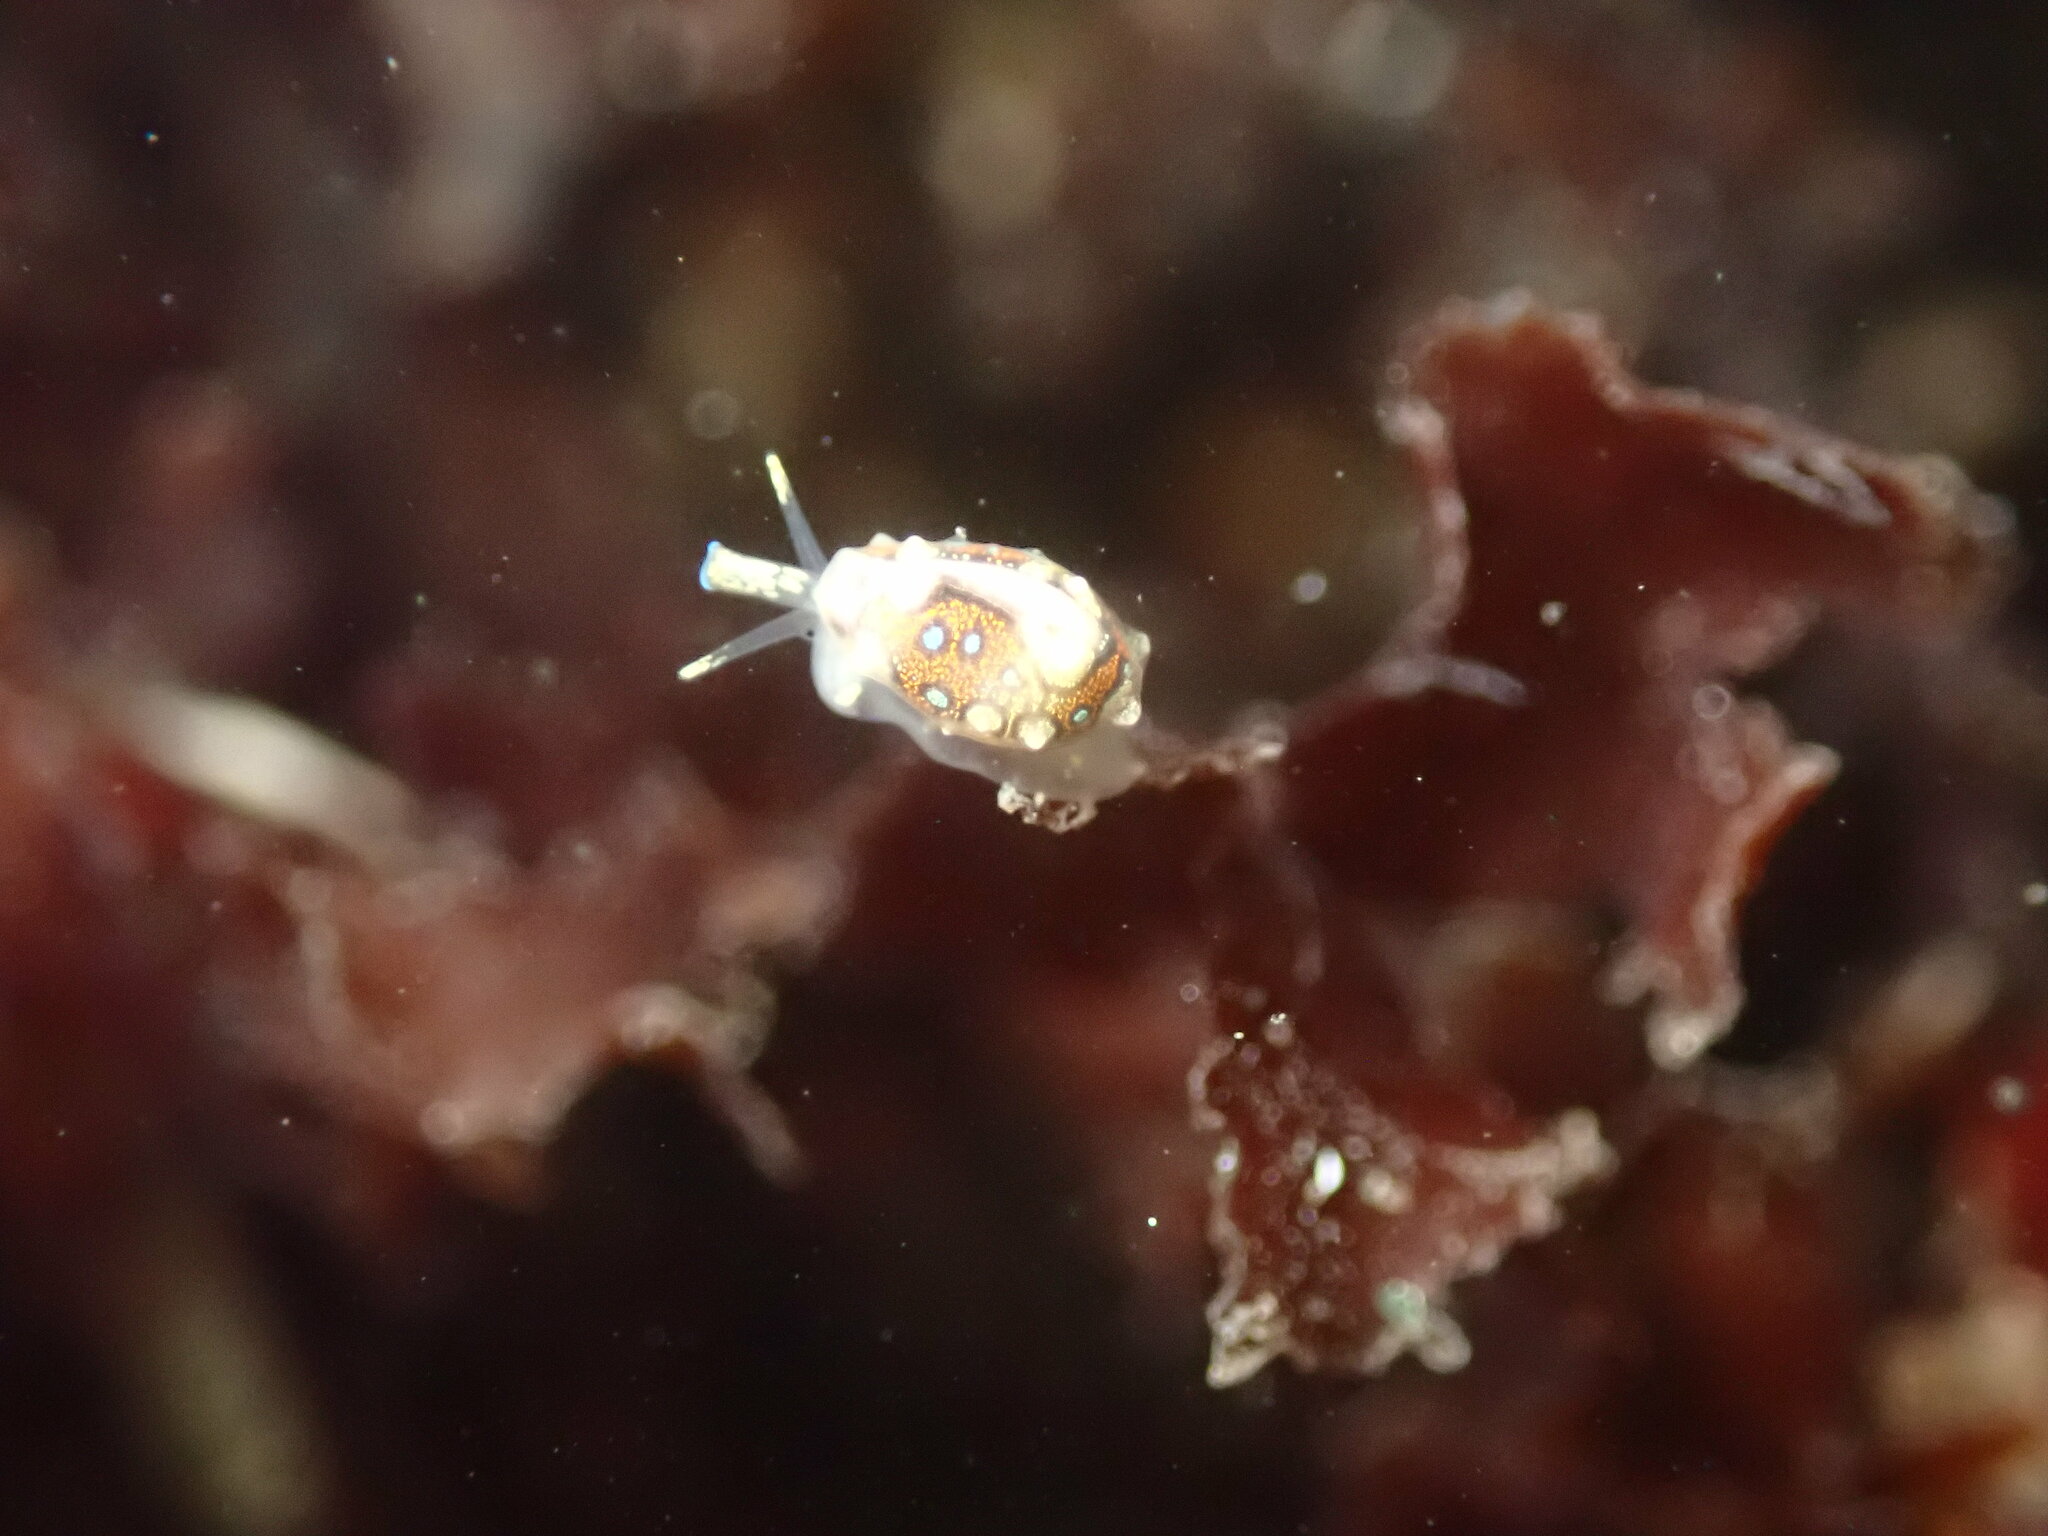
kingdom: Animalia
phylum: Mollusca
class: Gastropoda
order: Neogastropoda
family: Granulinidae
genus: Granulina
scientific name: Granulina margaritula
